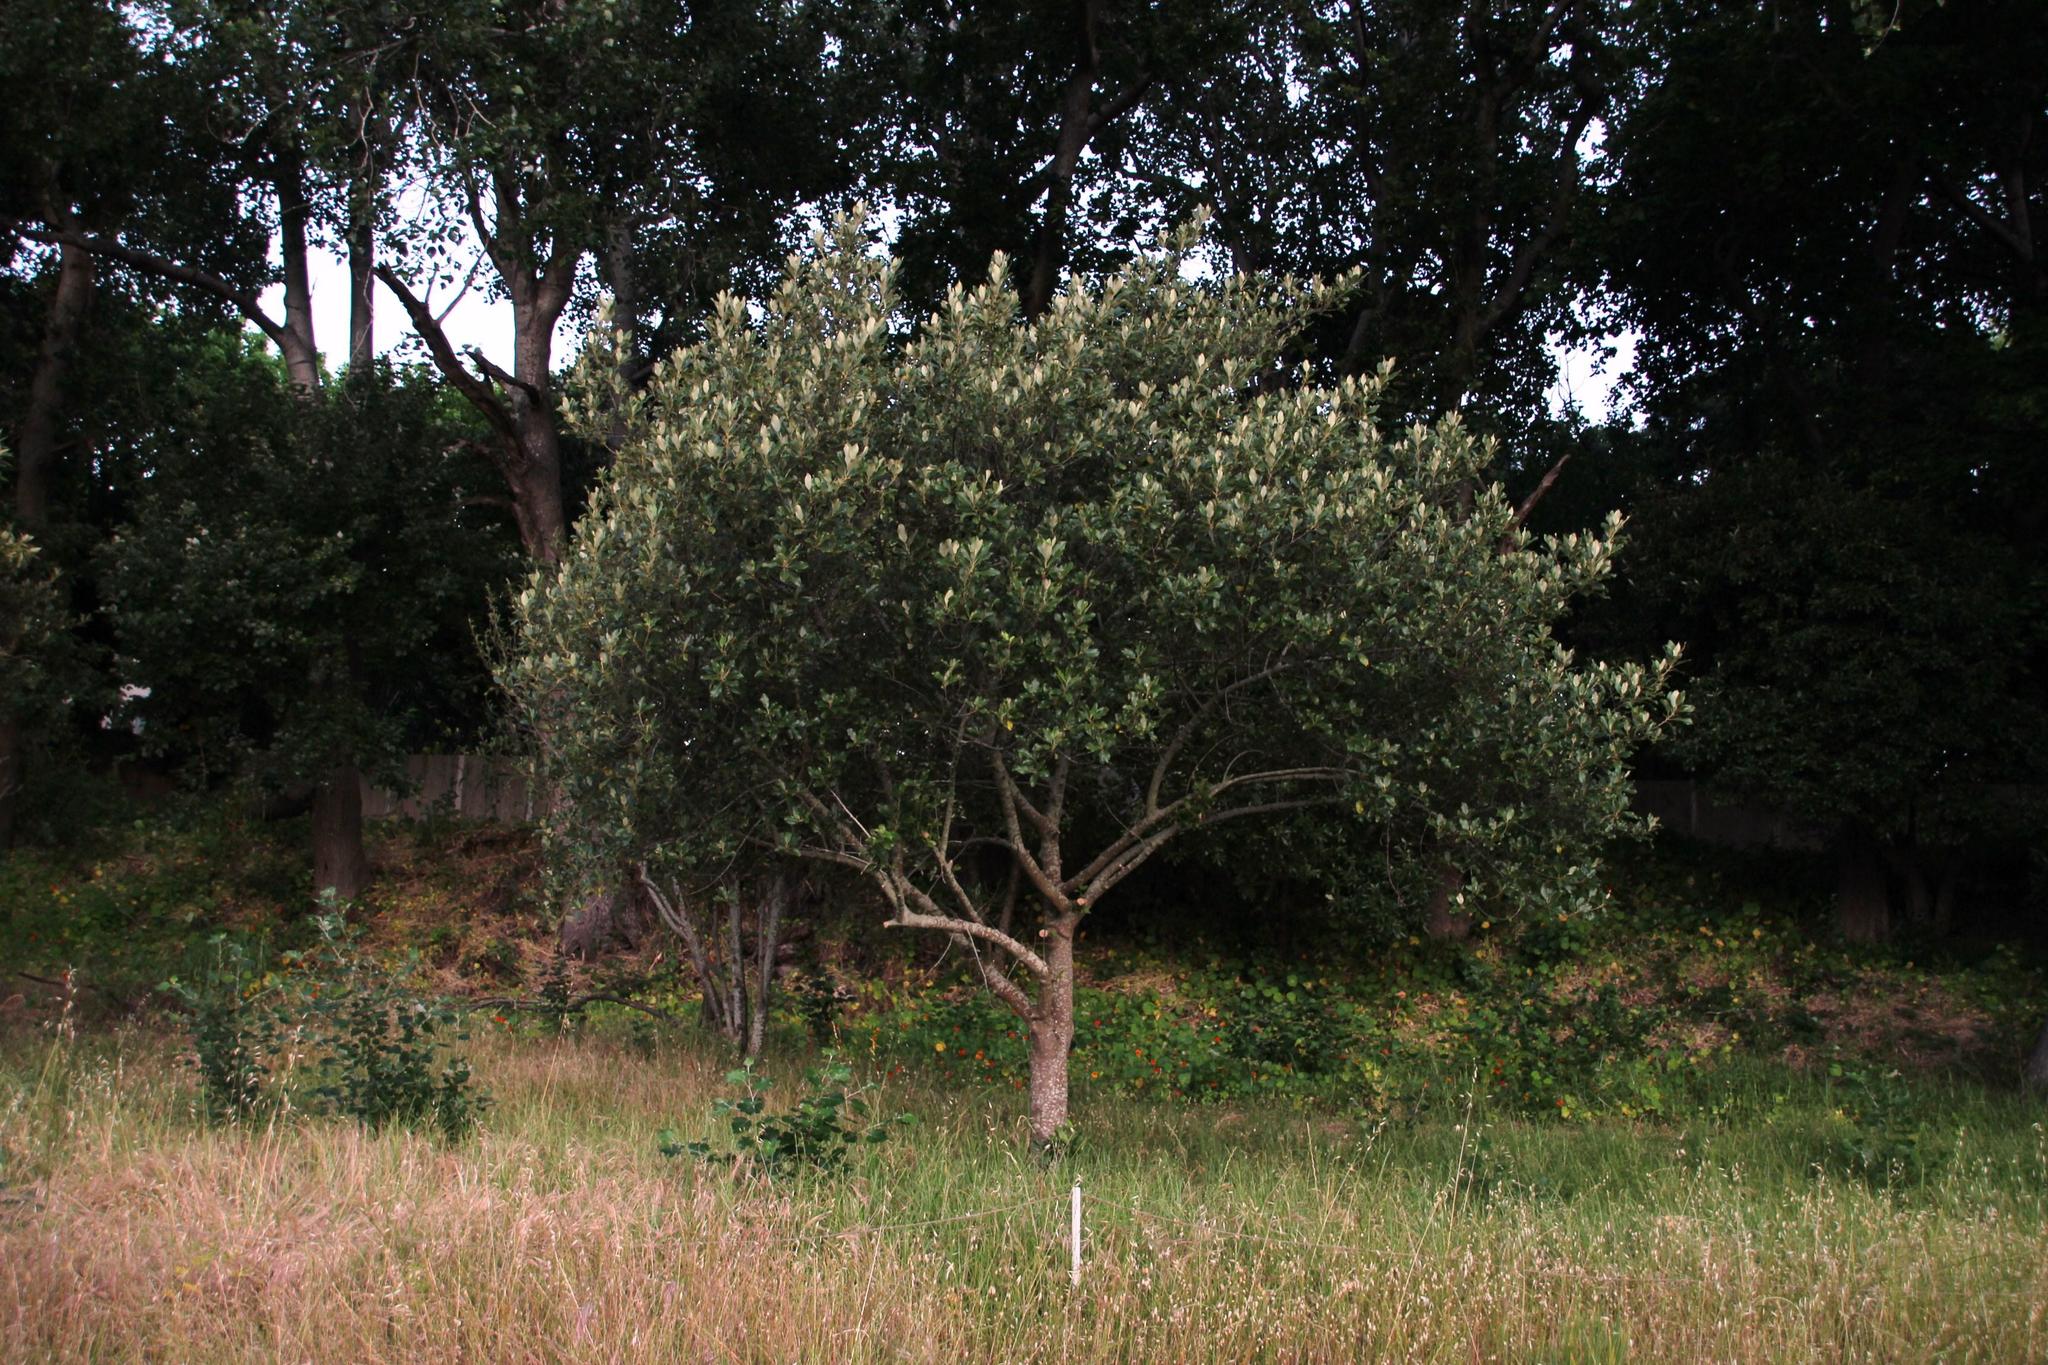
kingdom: Plantae
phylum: Tracheophyta
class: Magnoliopsida
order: Malpighiales
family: Achariaceae
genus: Kiggelaria
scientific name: Kiggelaria africana
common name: Wild peach
